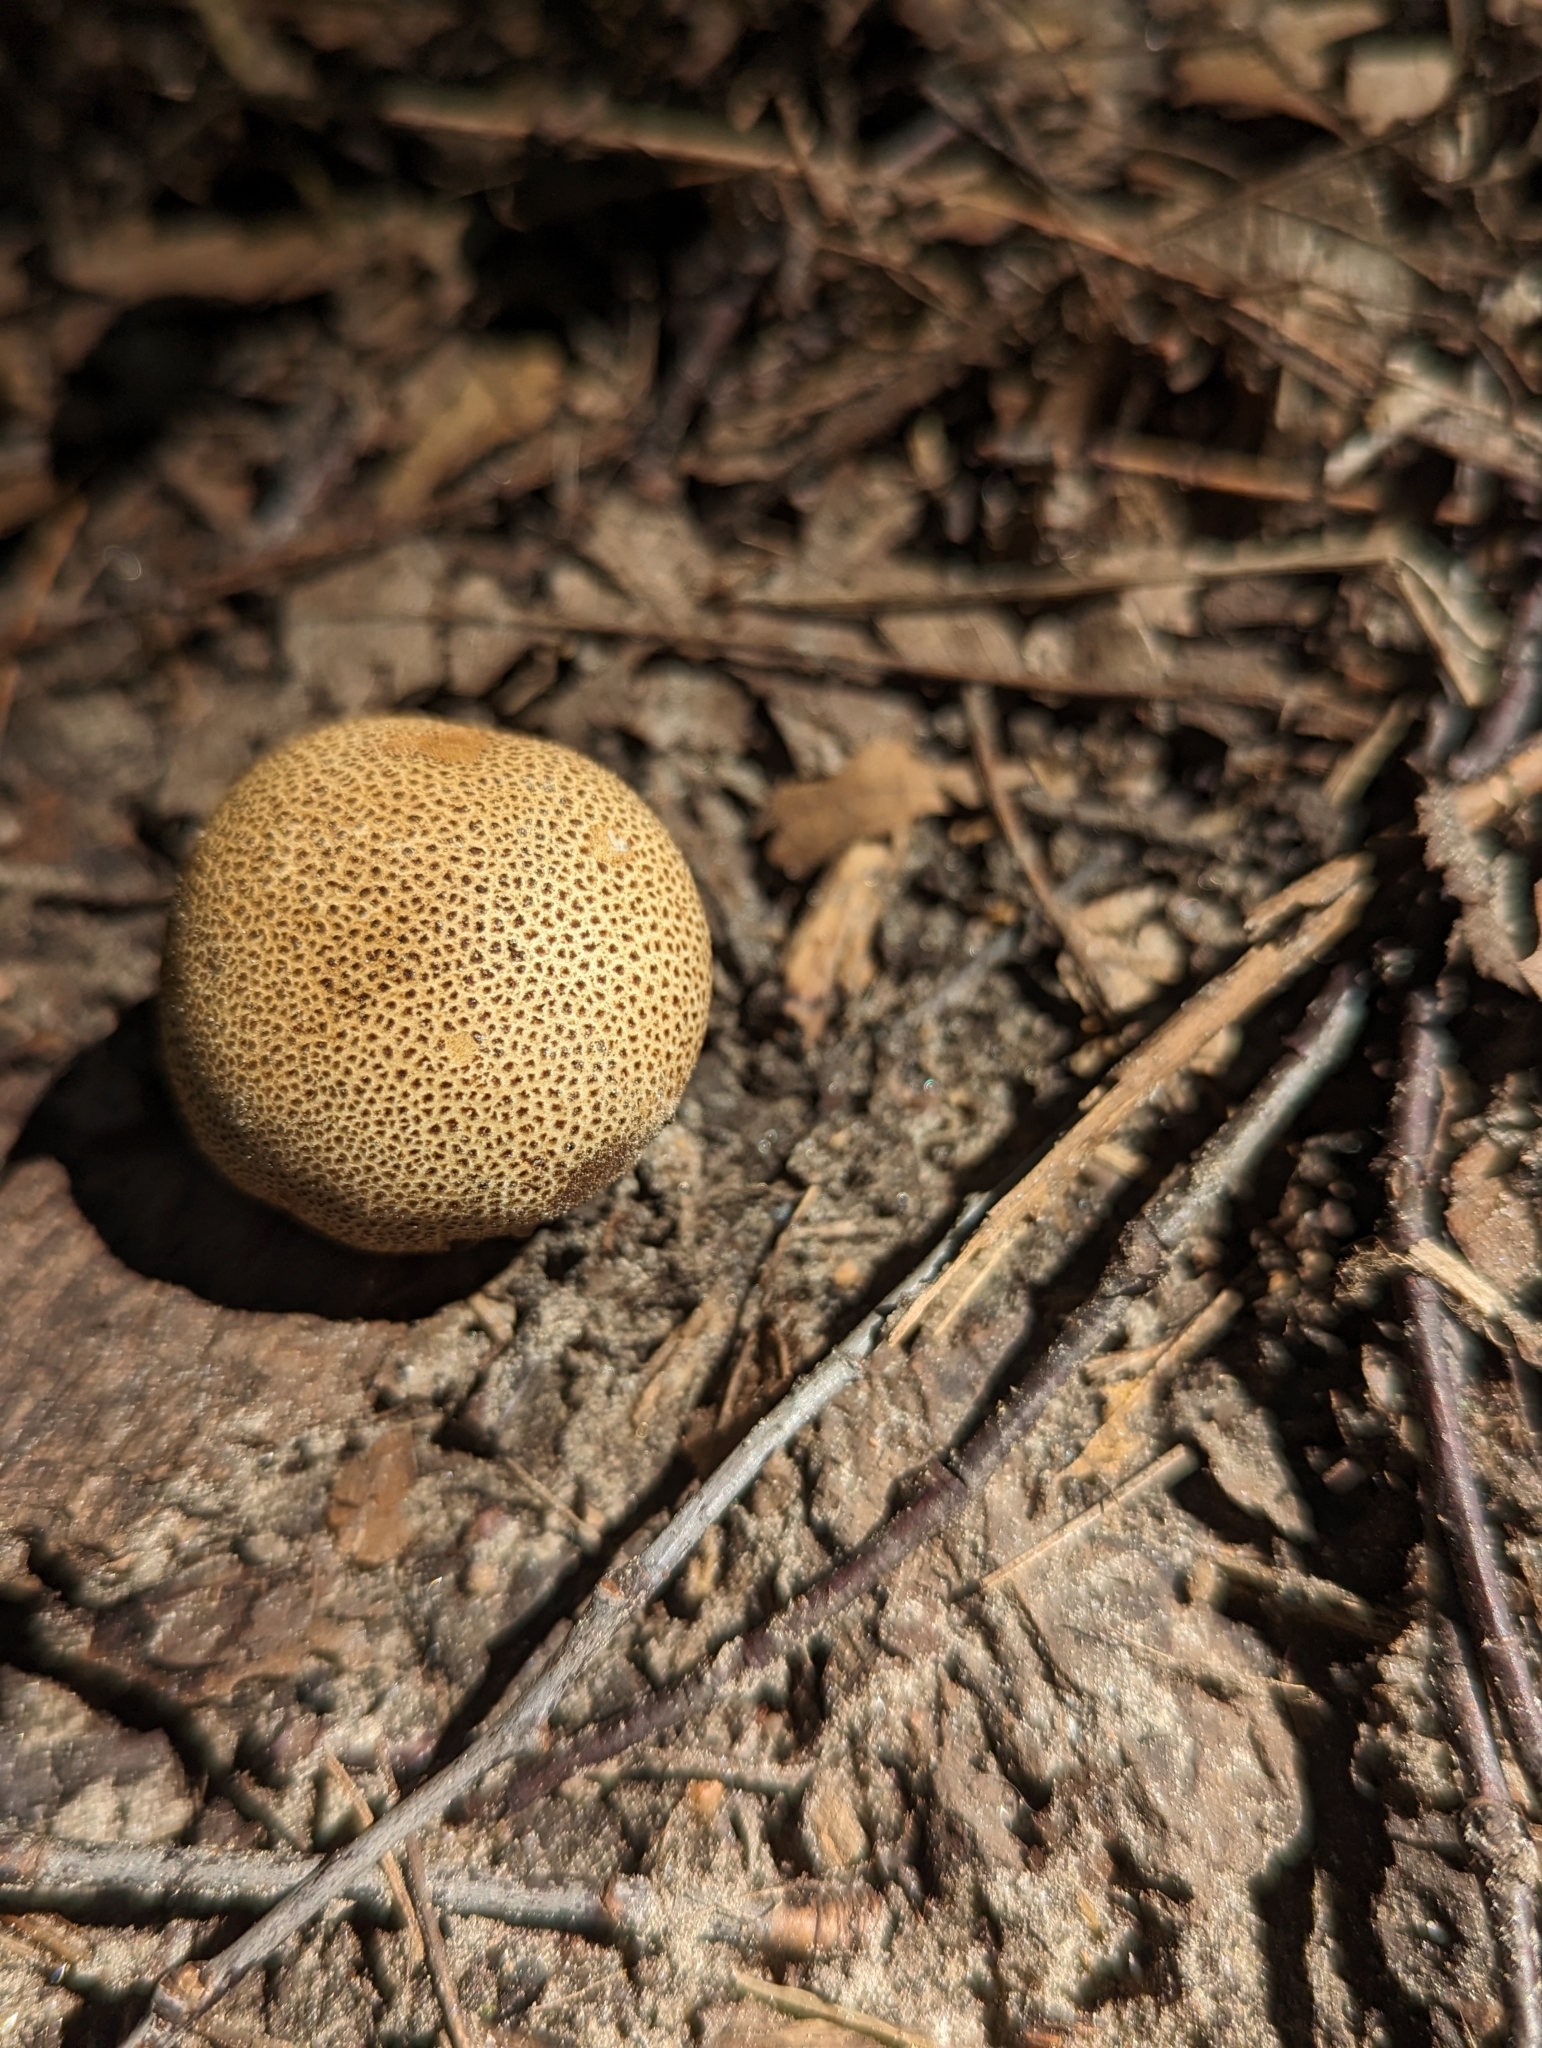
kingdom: Fungi
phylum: Basidiomycota
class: Agaricomycetes
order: Boletales
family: Sclerodermataceae
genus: Scleroderma
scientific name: Scleroderma citrinum
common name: Common earthball
